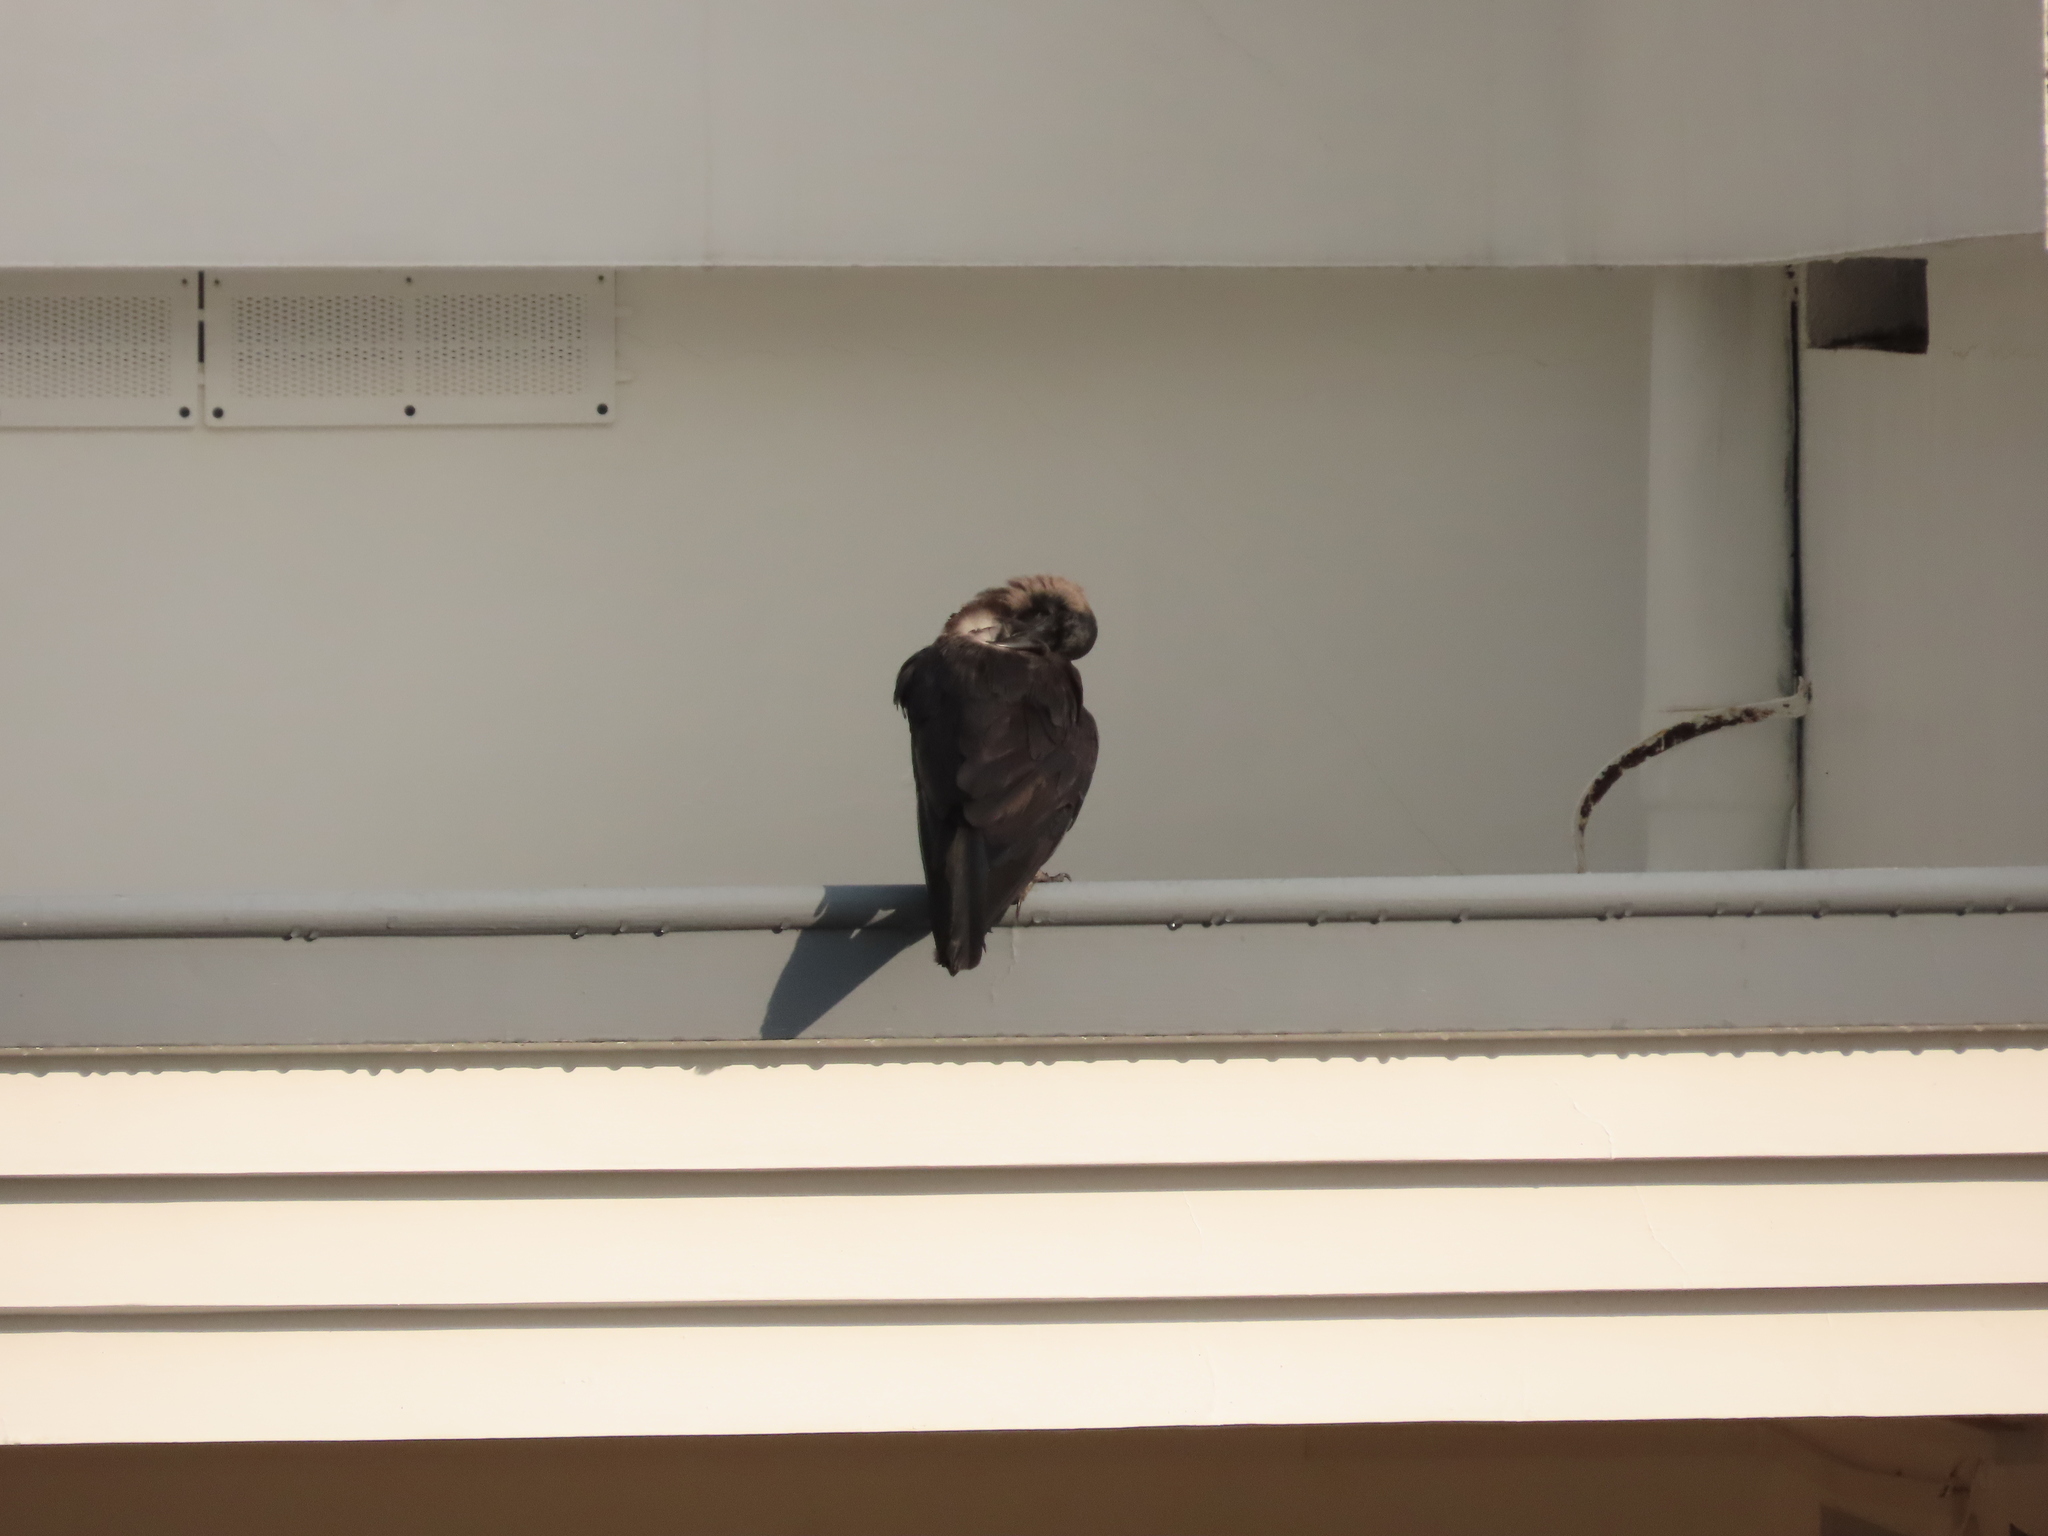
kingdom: Animalia
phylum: Chordata
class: Aves
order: Passeriformes
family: Corvidae
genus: Corvus
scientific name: Corvus splendens
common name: House crow
